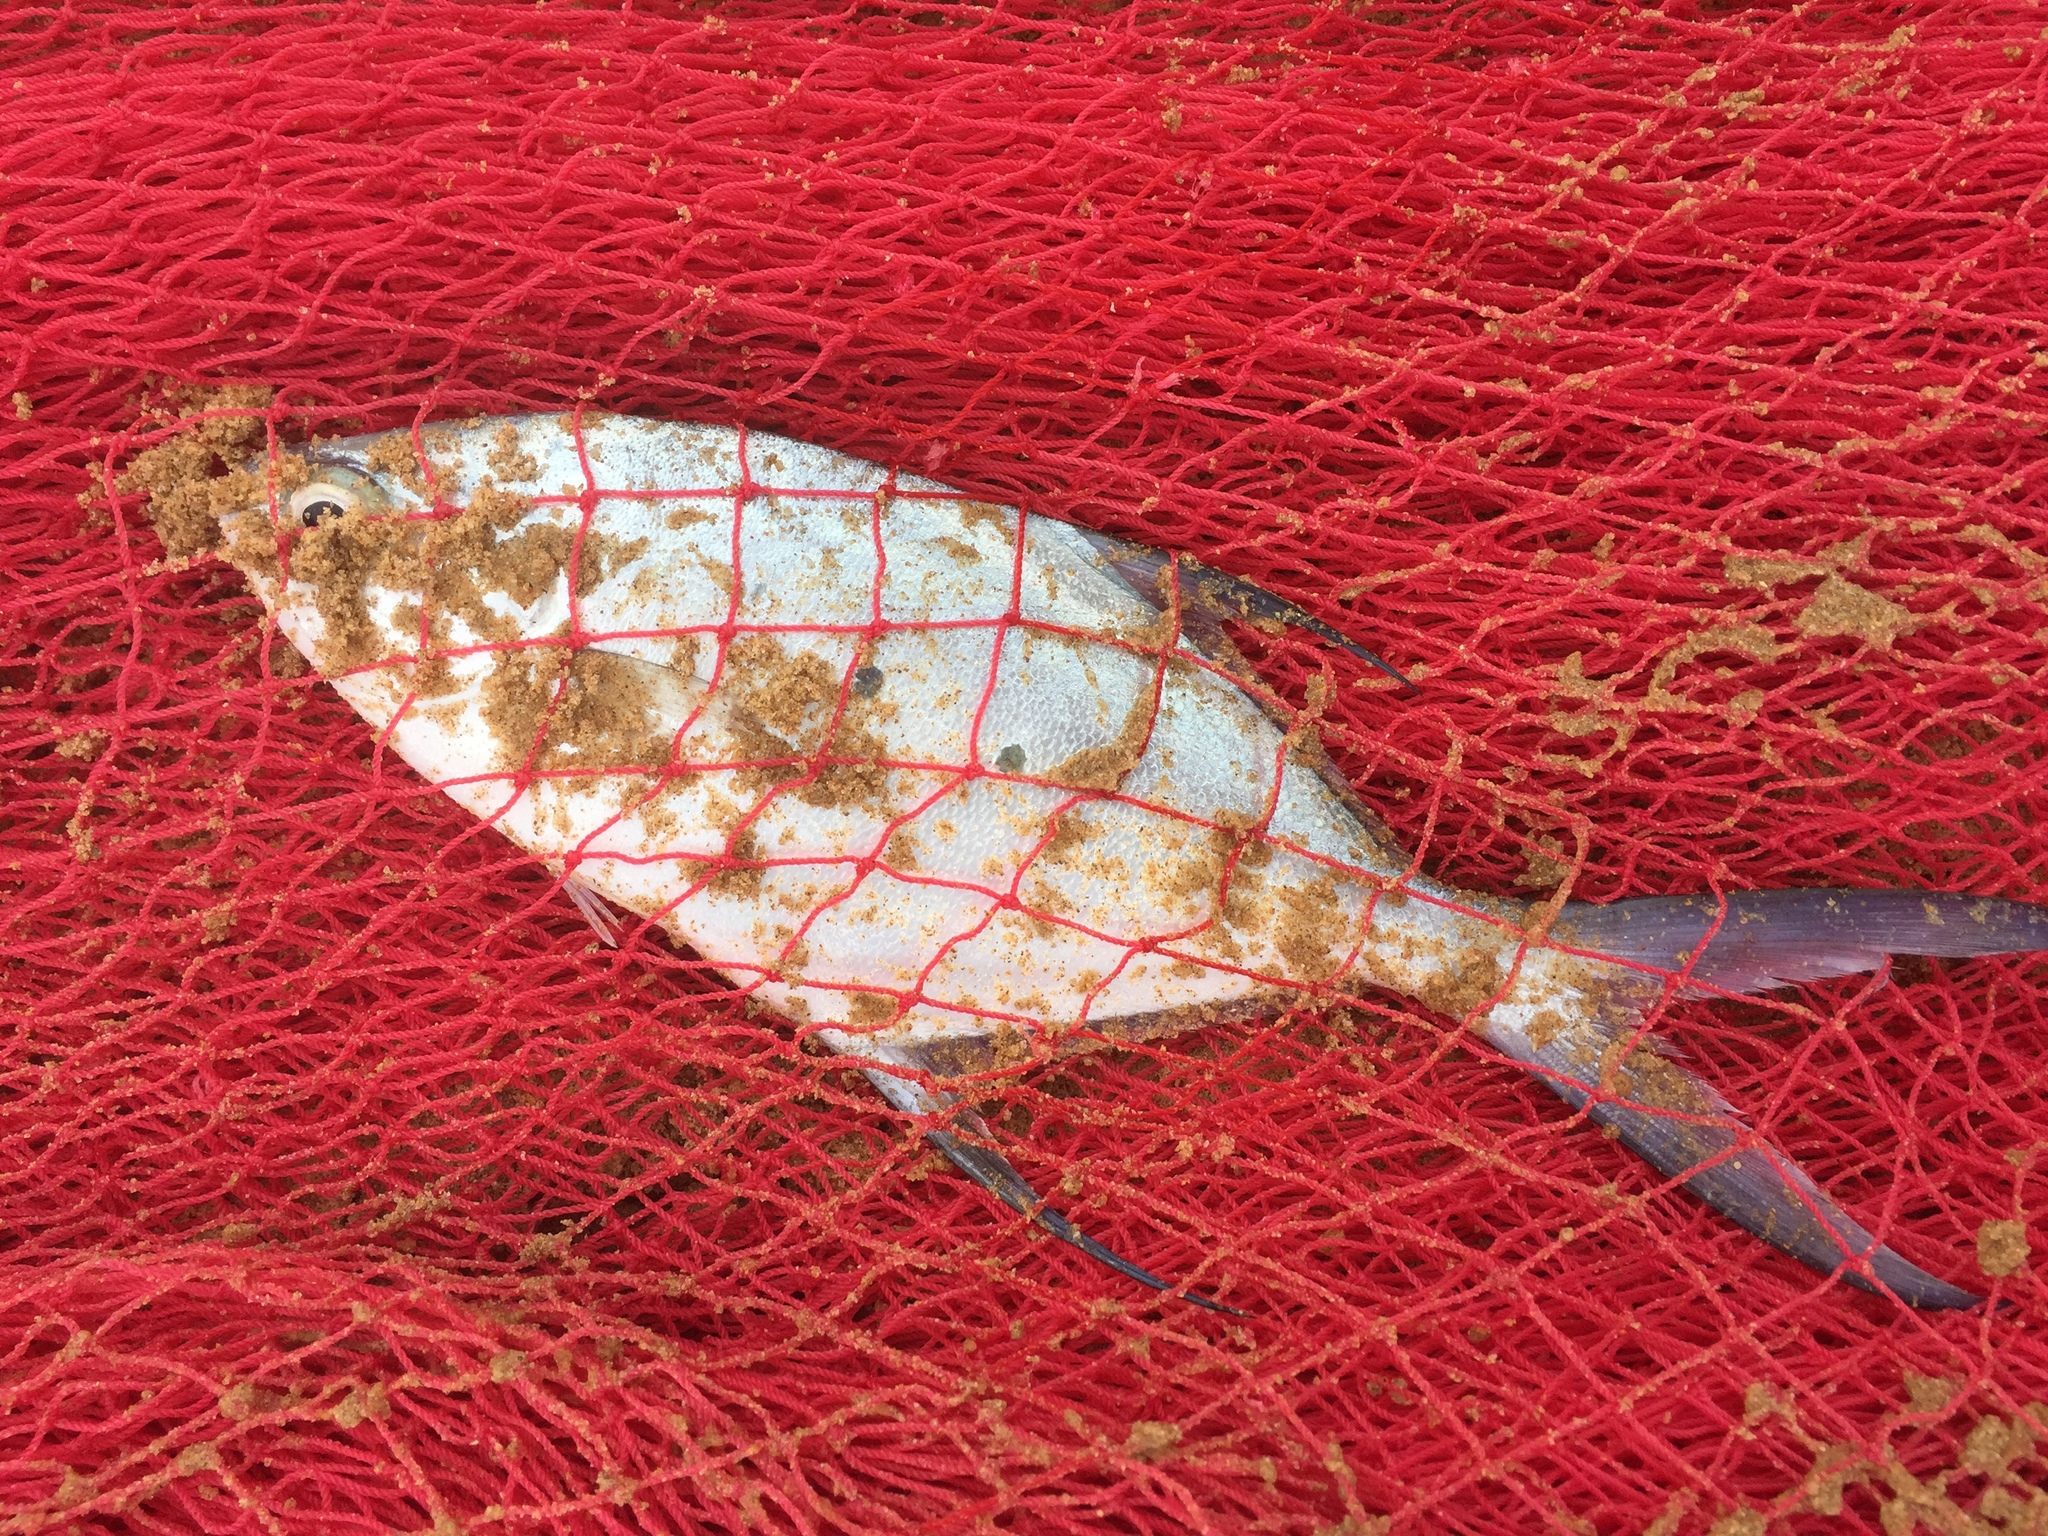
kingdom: Animalia
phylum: Chordata
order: Perciformes
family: Carangidae
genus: Trachinotus
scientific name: Trachinotus baillonii
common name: Smallspotted dart
